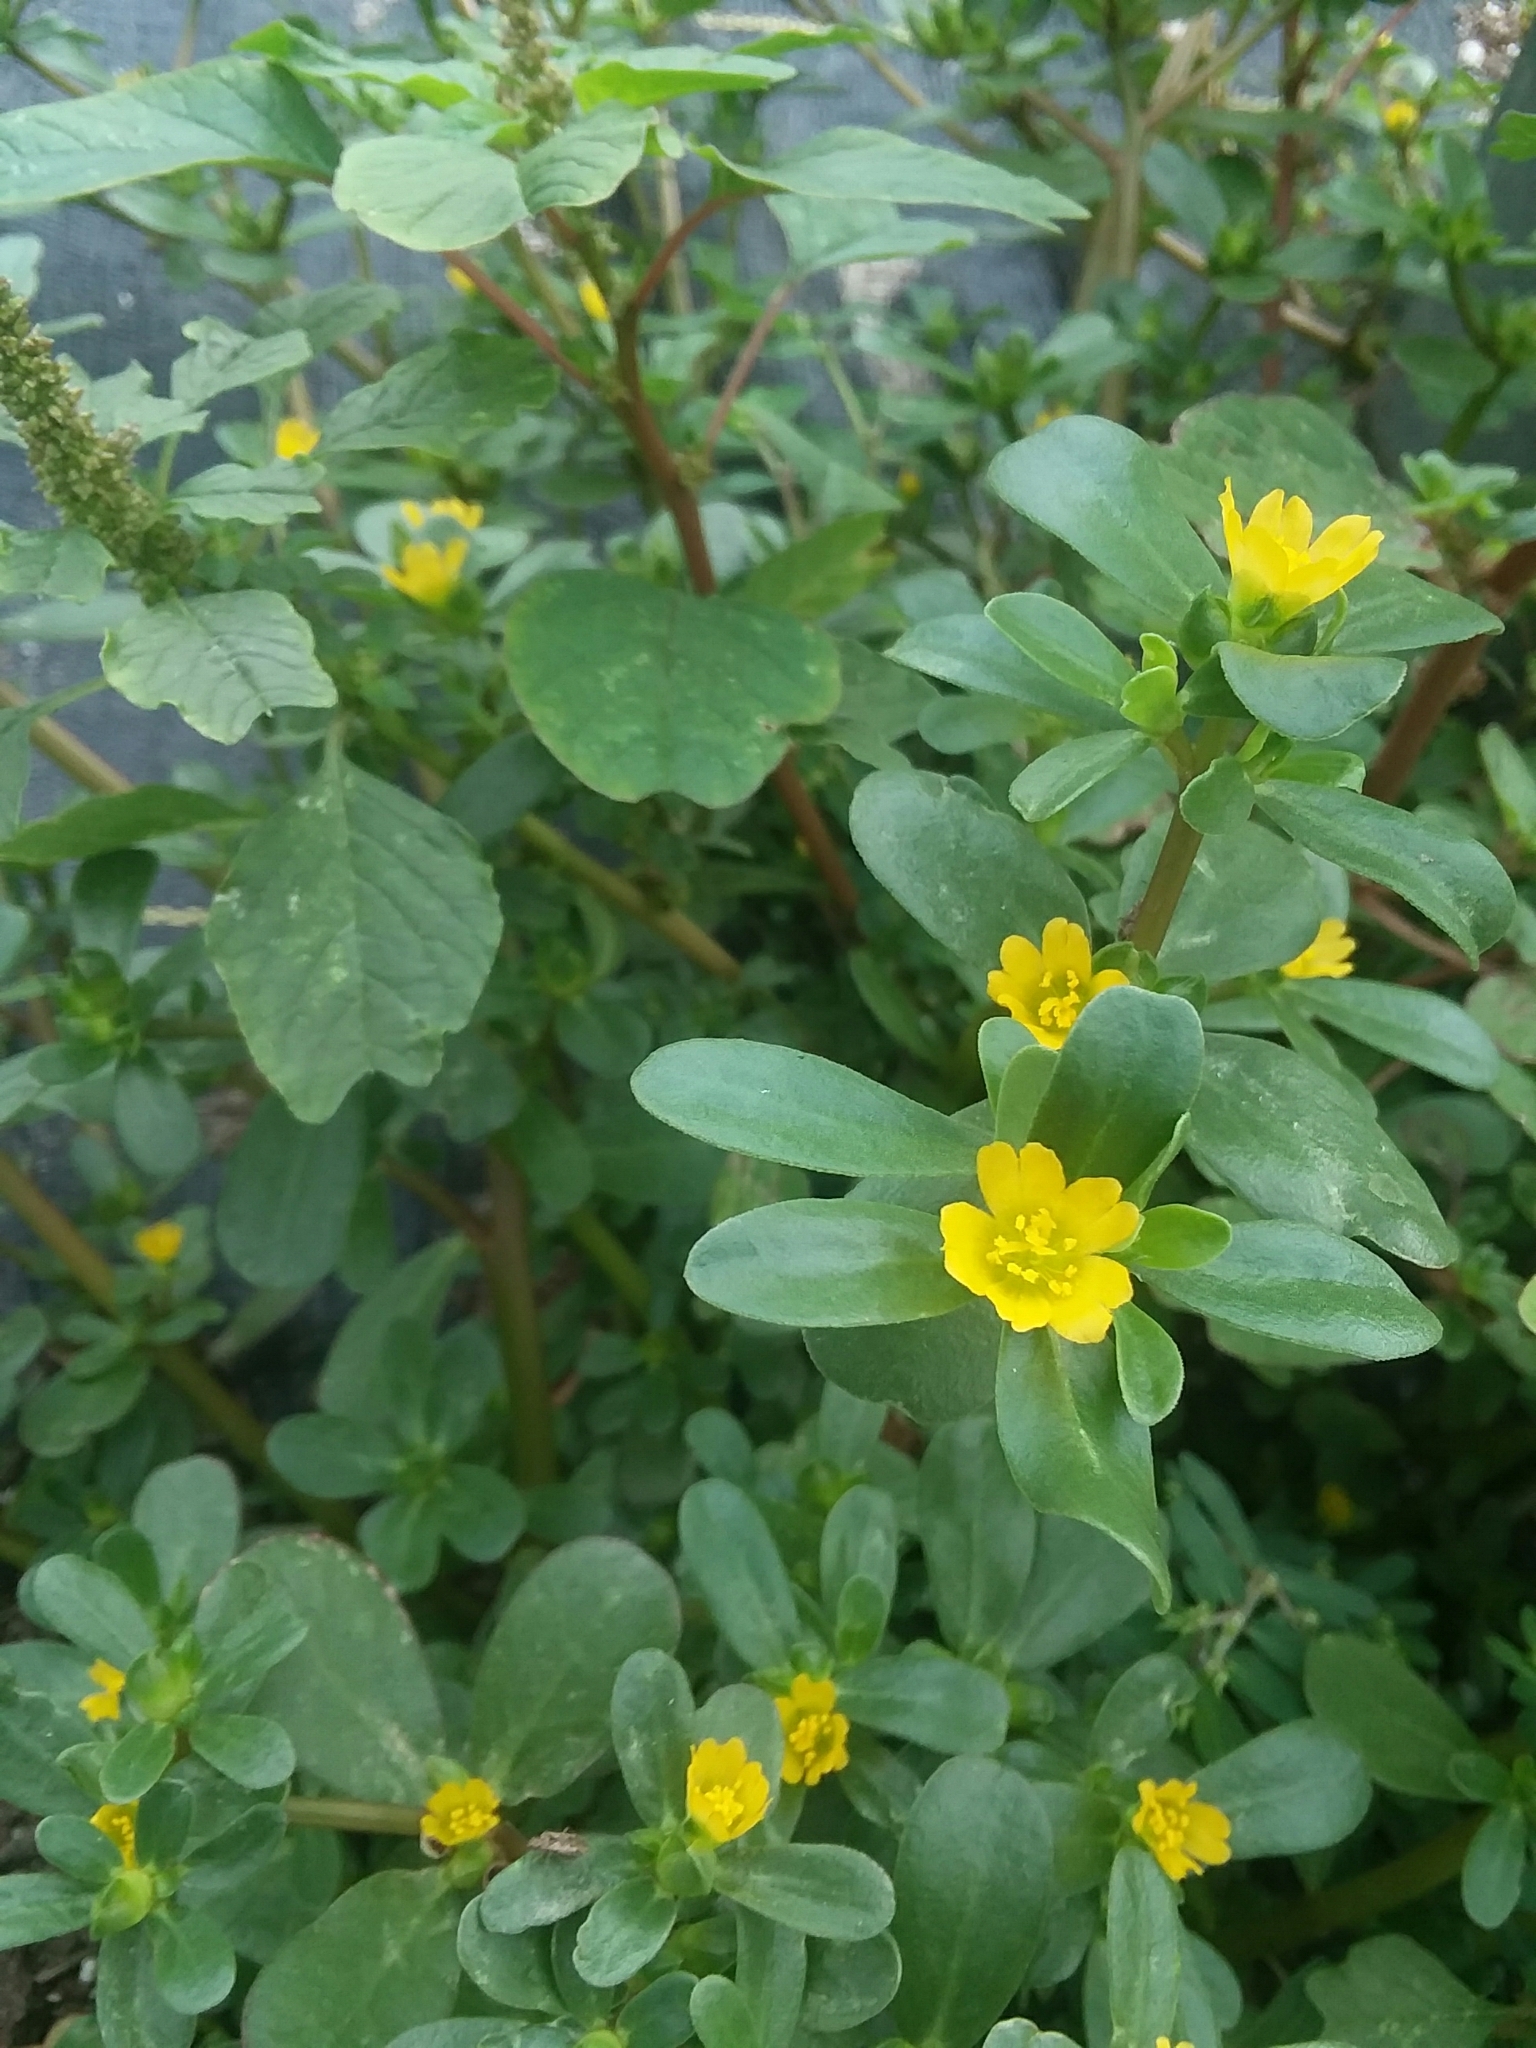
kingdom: Plantae
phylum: Tracheophyta
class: Magnoliopsida
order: Caryophyllales
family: Portulacaceae
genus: Portulaca
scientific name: Portulaca oleracea
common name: Common purslane
